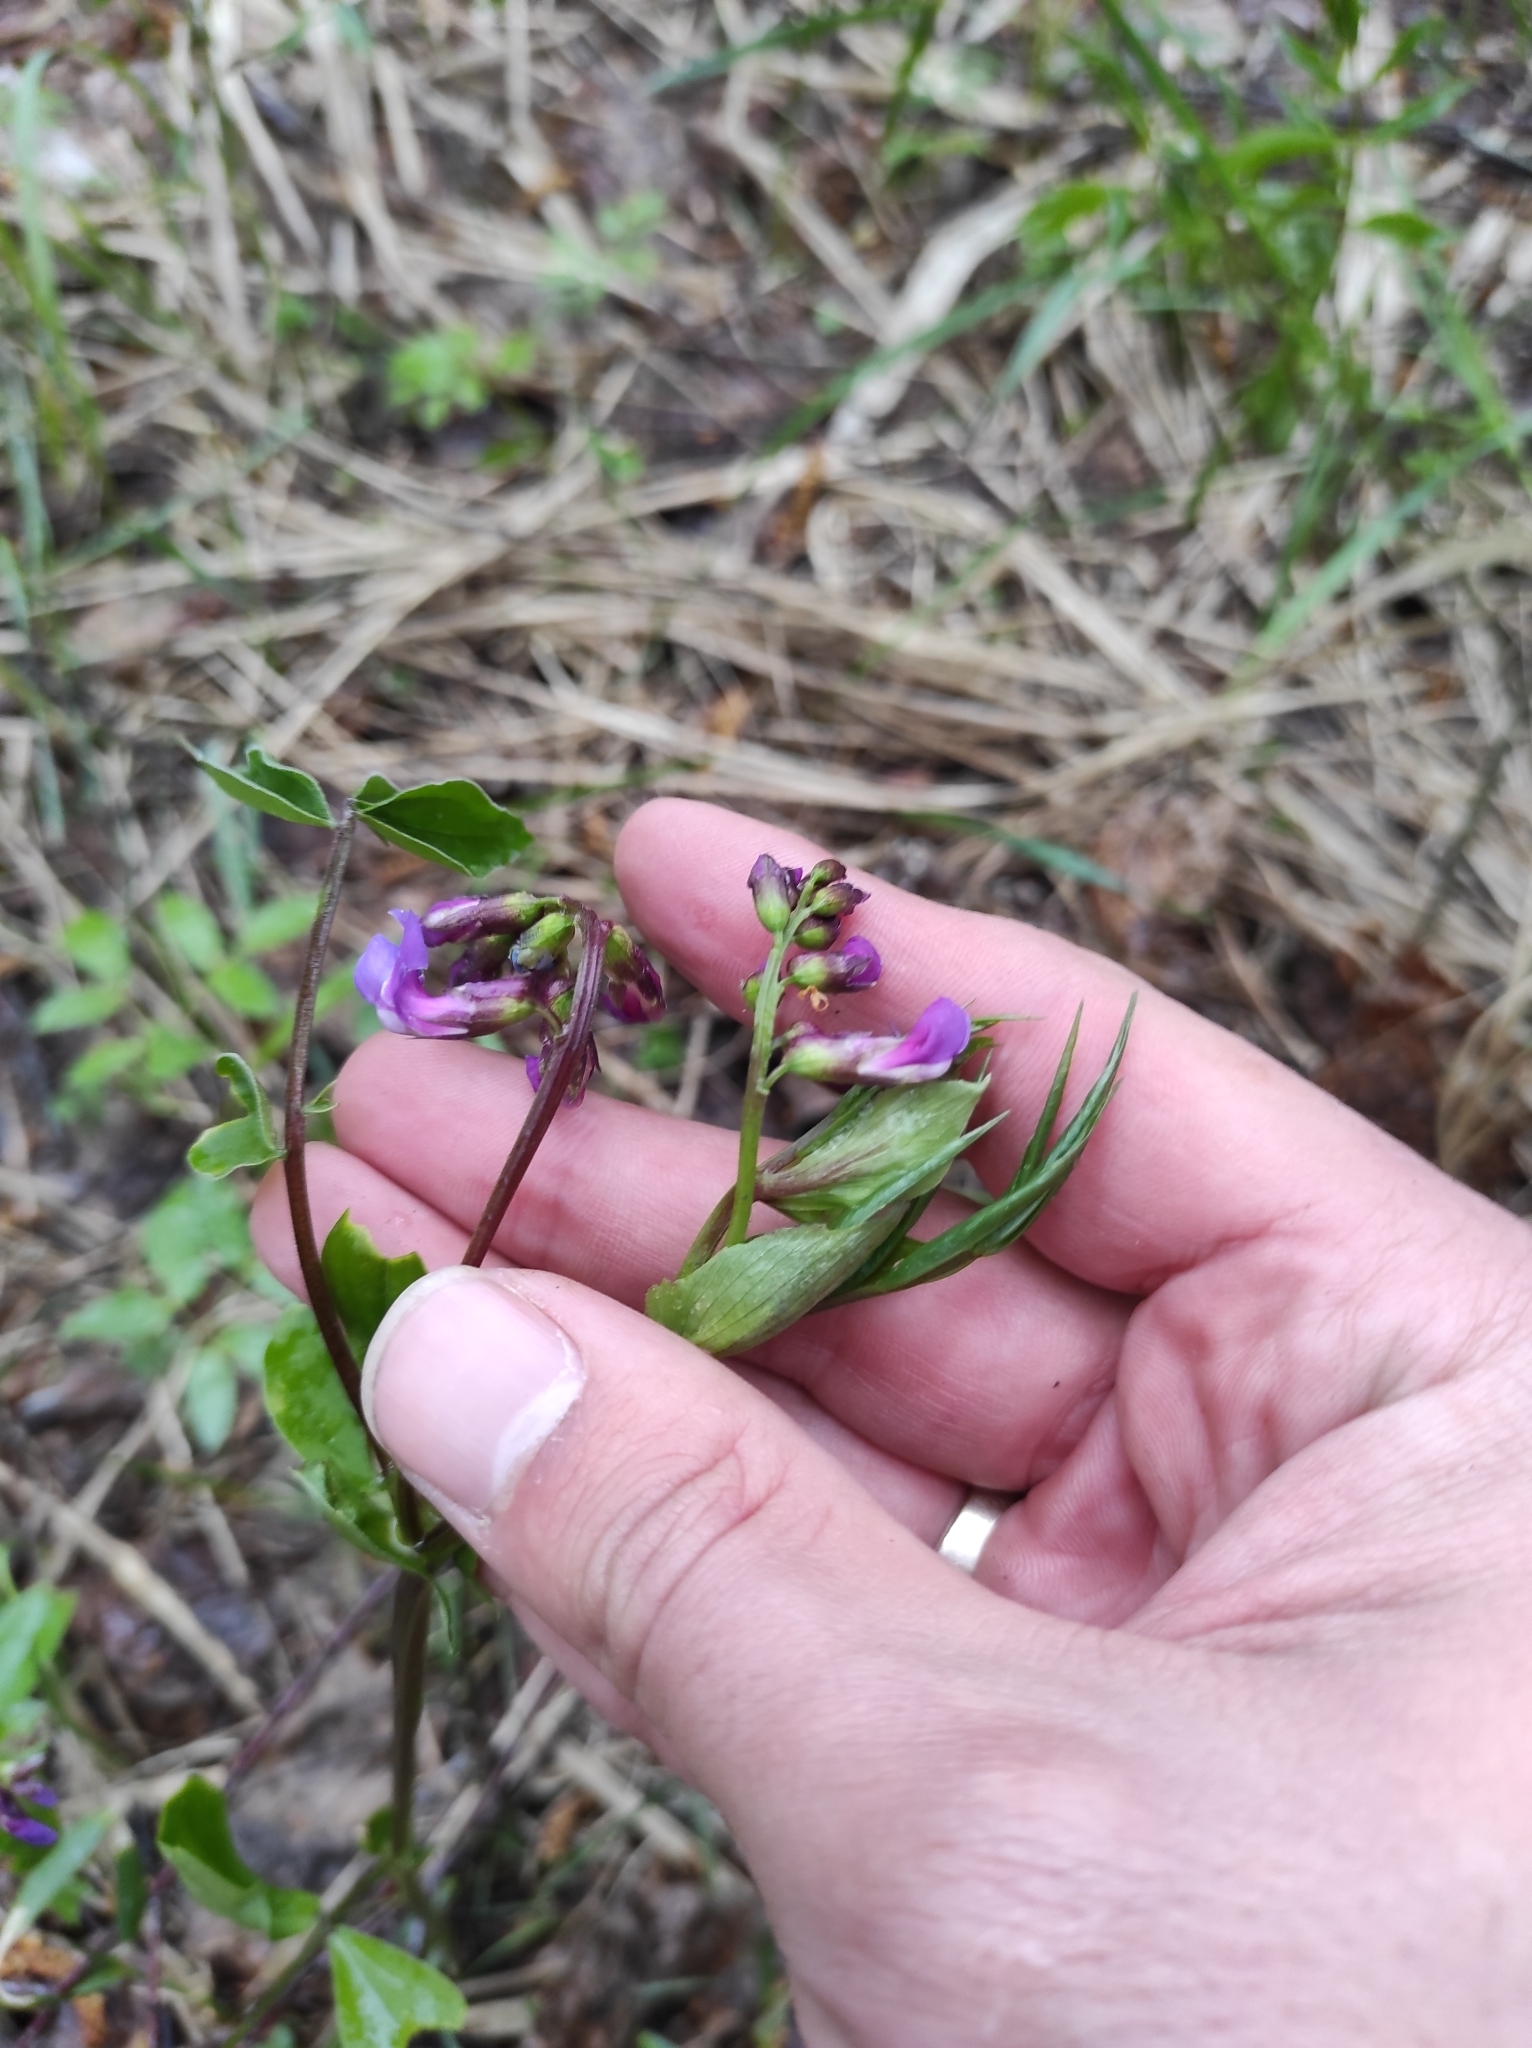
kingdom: Plantae
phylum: Tracheophyta
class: Magnoliopsida
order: Fabales
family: Fabaceae
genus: Lathyrus
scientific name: Lathyrus vernus
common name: Spring pea
